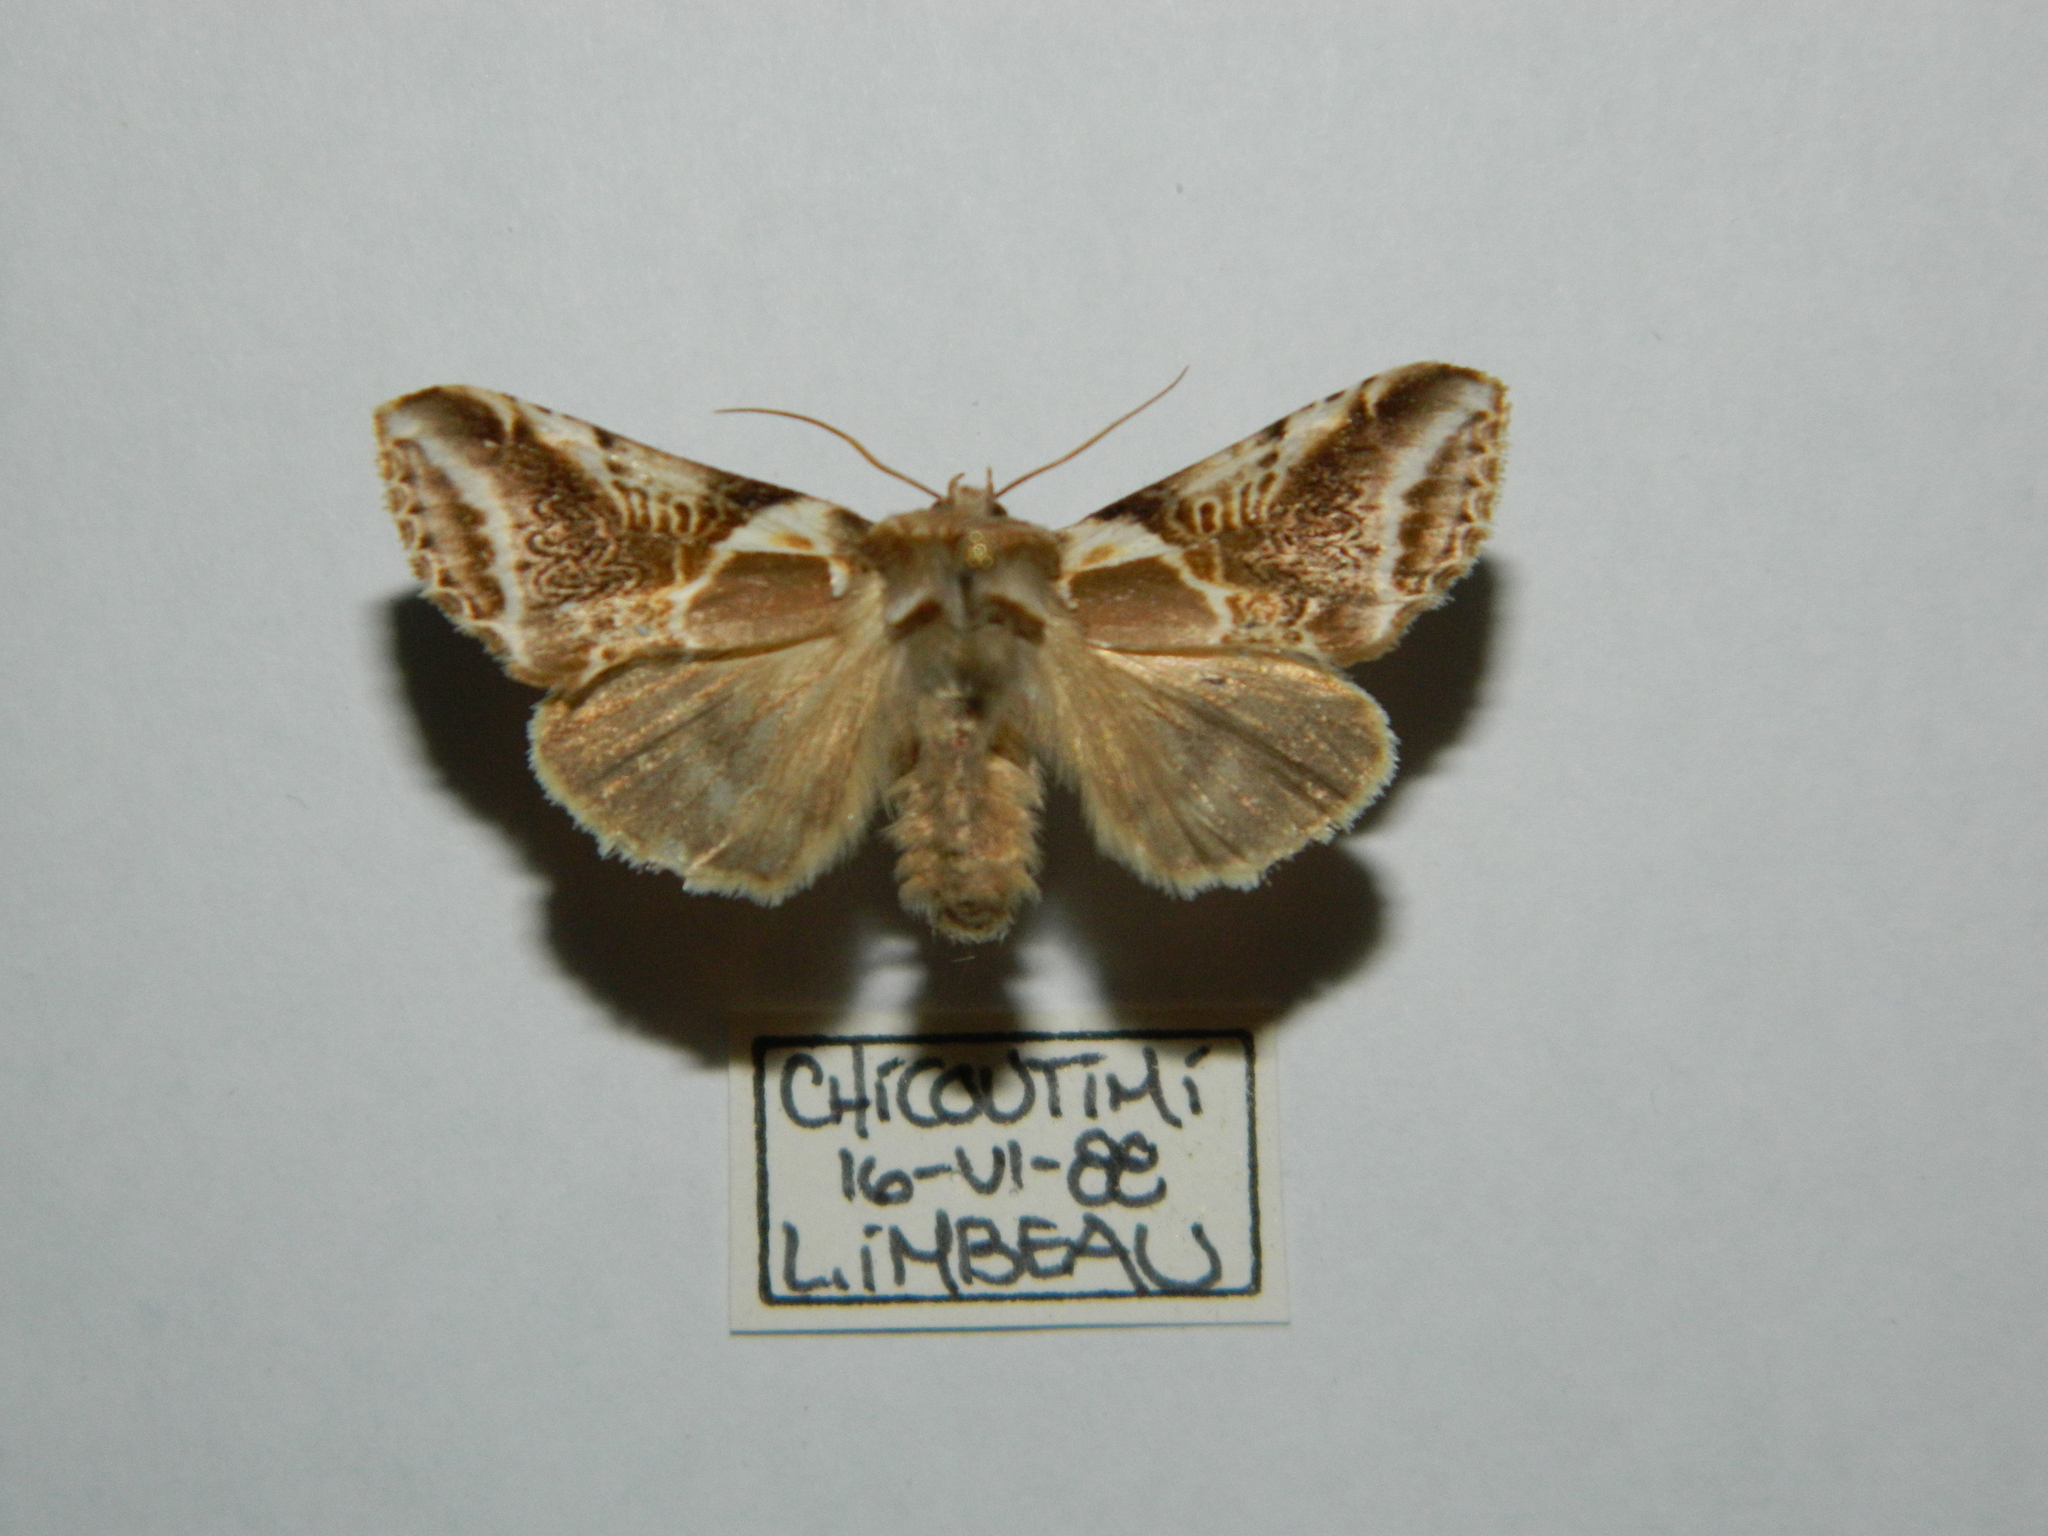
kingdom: Animalia
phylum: Arthropoda
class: Insecta
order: Lepidoptera
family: Drepanidae
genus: Habrosyne
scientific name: Habrosyne scripta
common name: Lettered habrosyne moth
